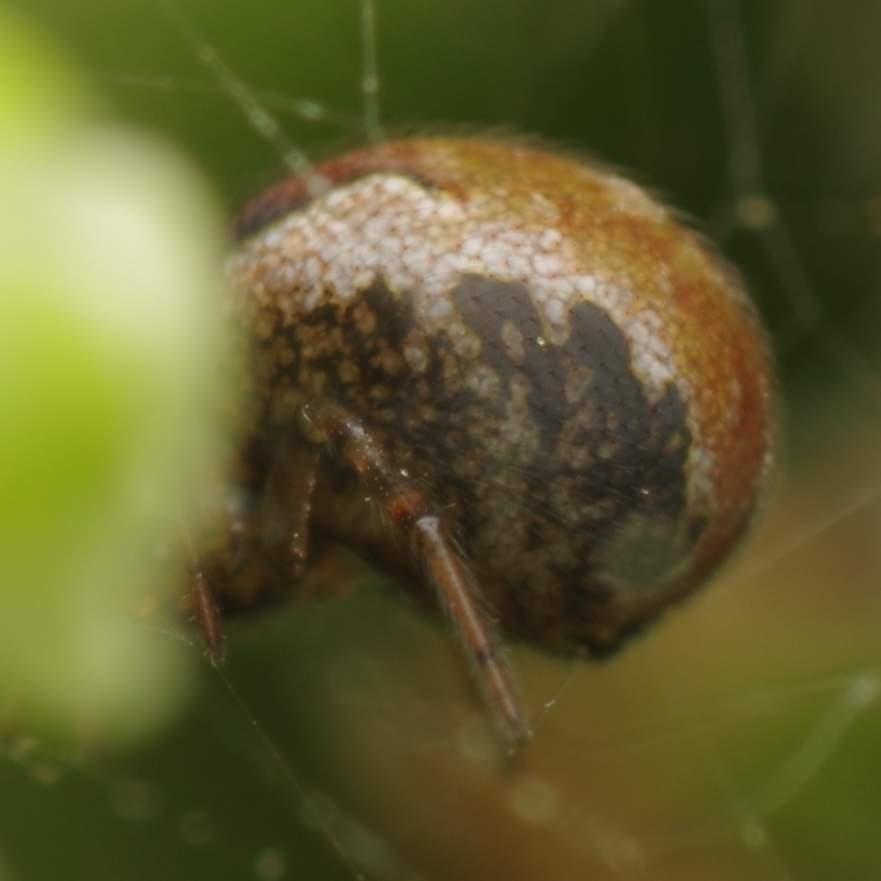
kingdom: Animalia
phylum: Arthropoda
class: Arachnida
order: Araneae
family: Theridiidae
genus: Kochiura
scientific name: Kochiura aulica
